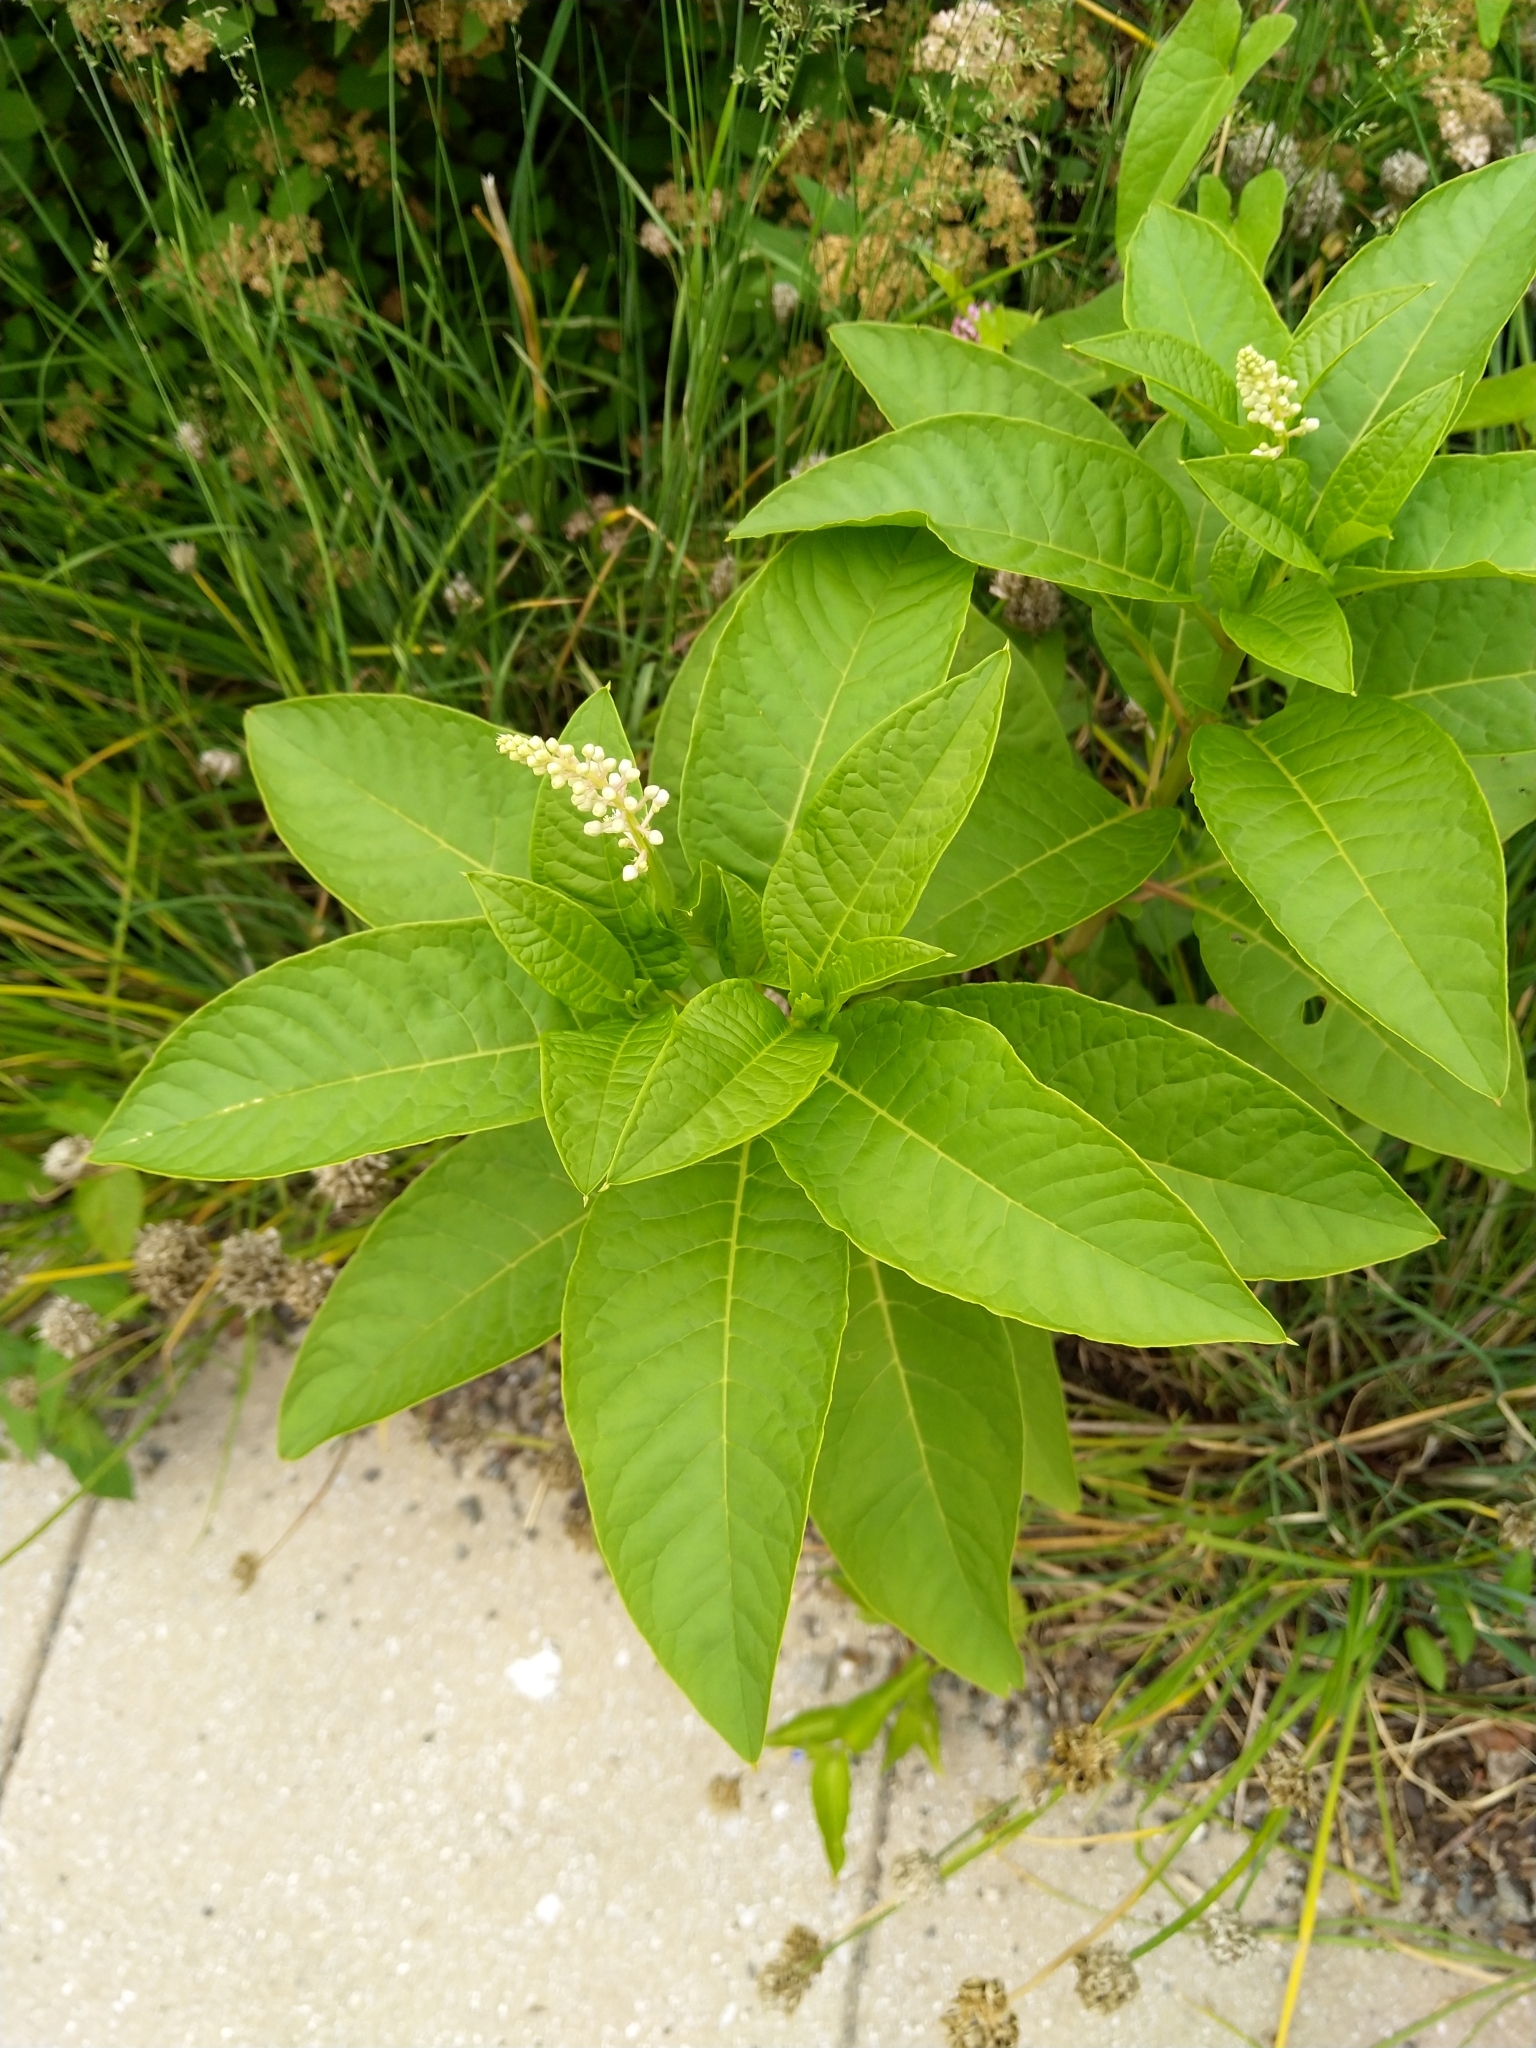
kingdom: Plantae
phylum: Tracheophyta
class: Magnoliopsida
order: Caryophyllales
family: Phytolaccaceae
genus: Phytolacca
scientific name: Phytolacca americana
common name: American pokeweed
